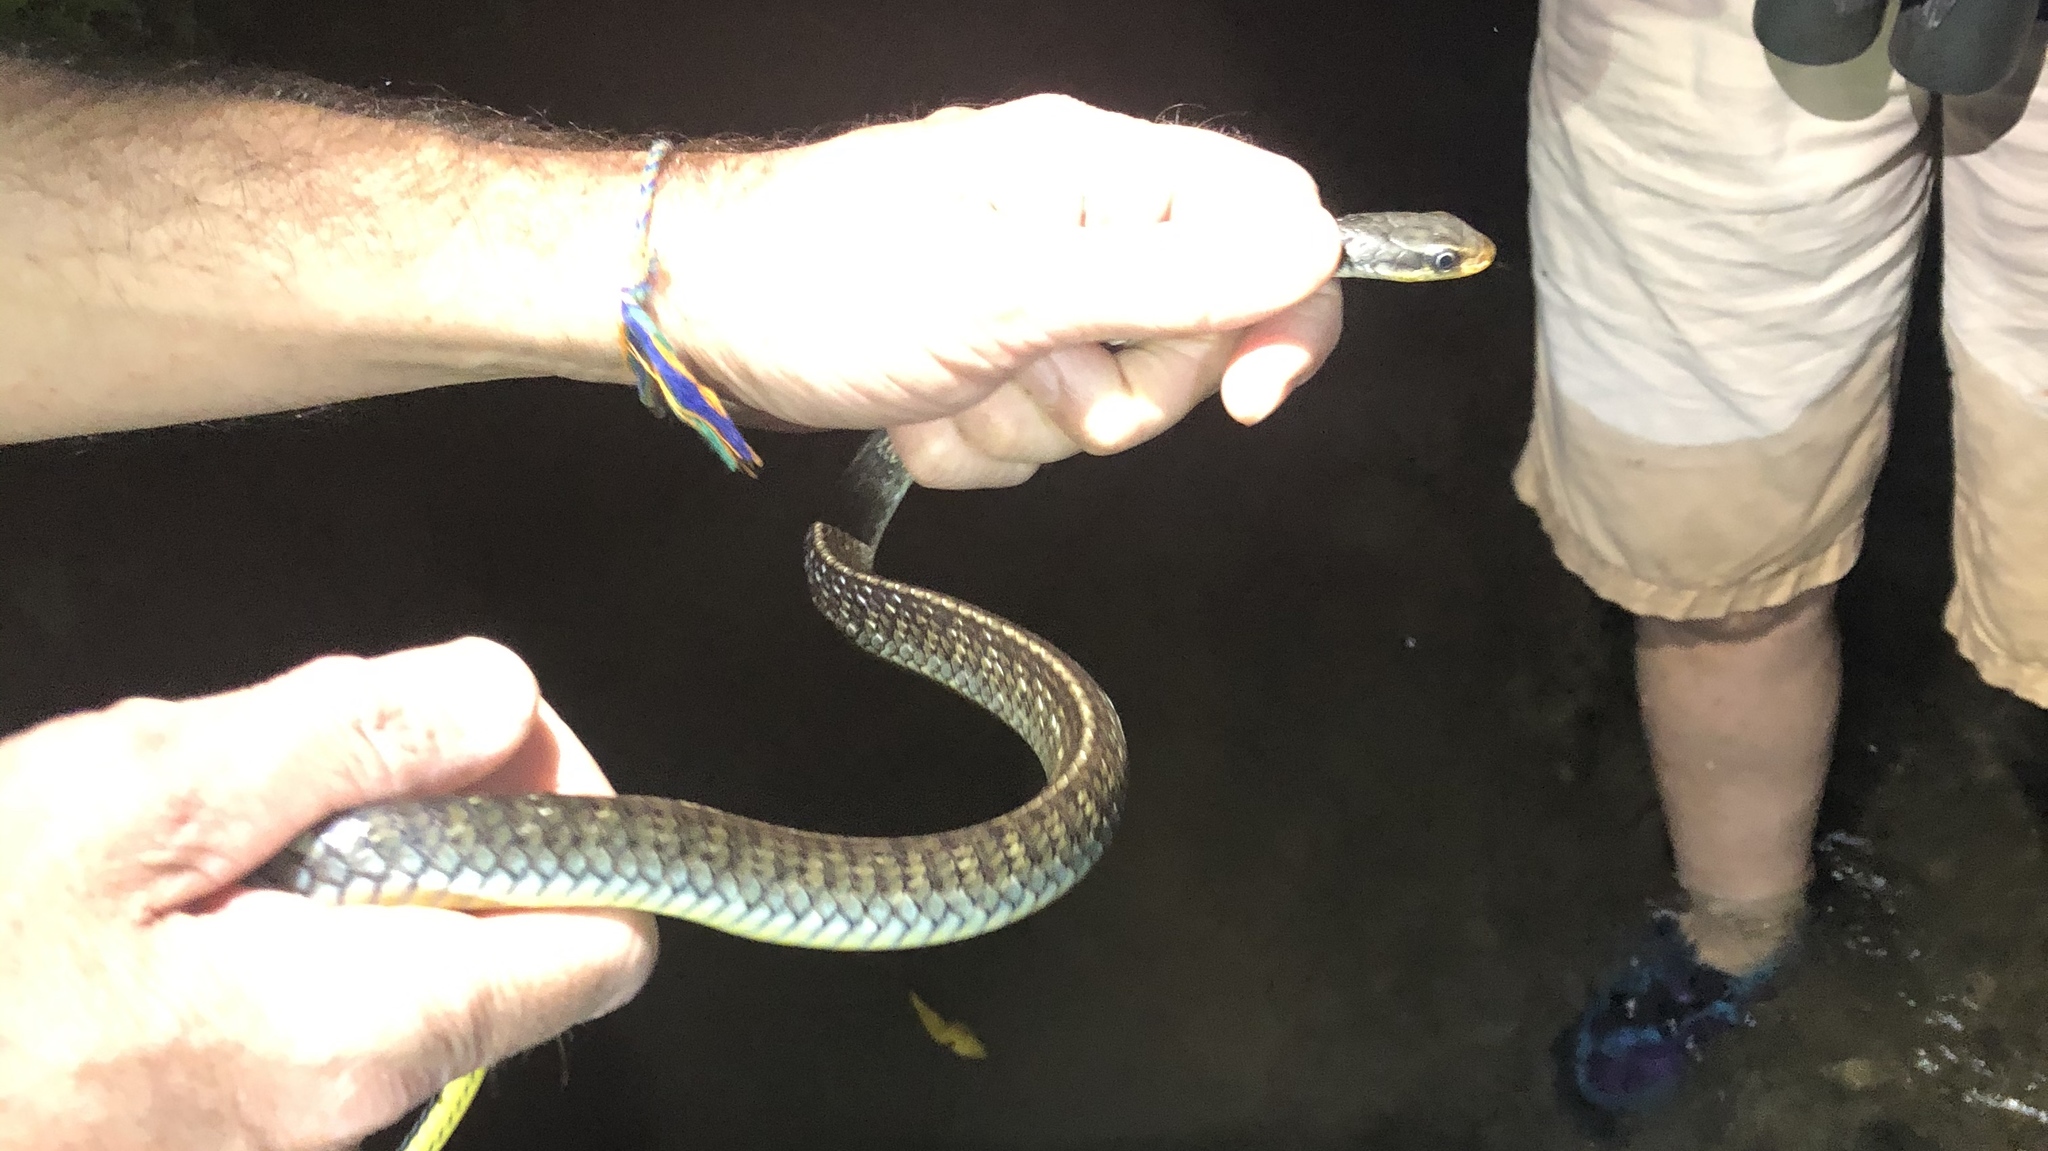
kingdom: Animalia
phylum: Chordata
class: Squamata
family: Colubridae
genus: Chironius
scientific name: Chironius flavopictus
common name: Sipo
